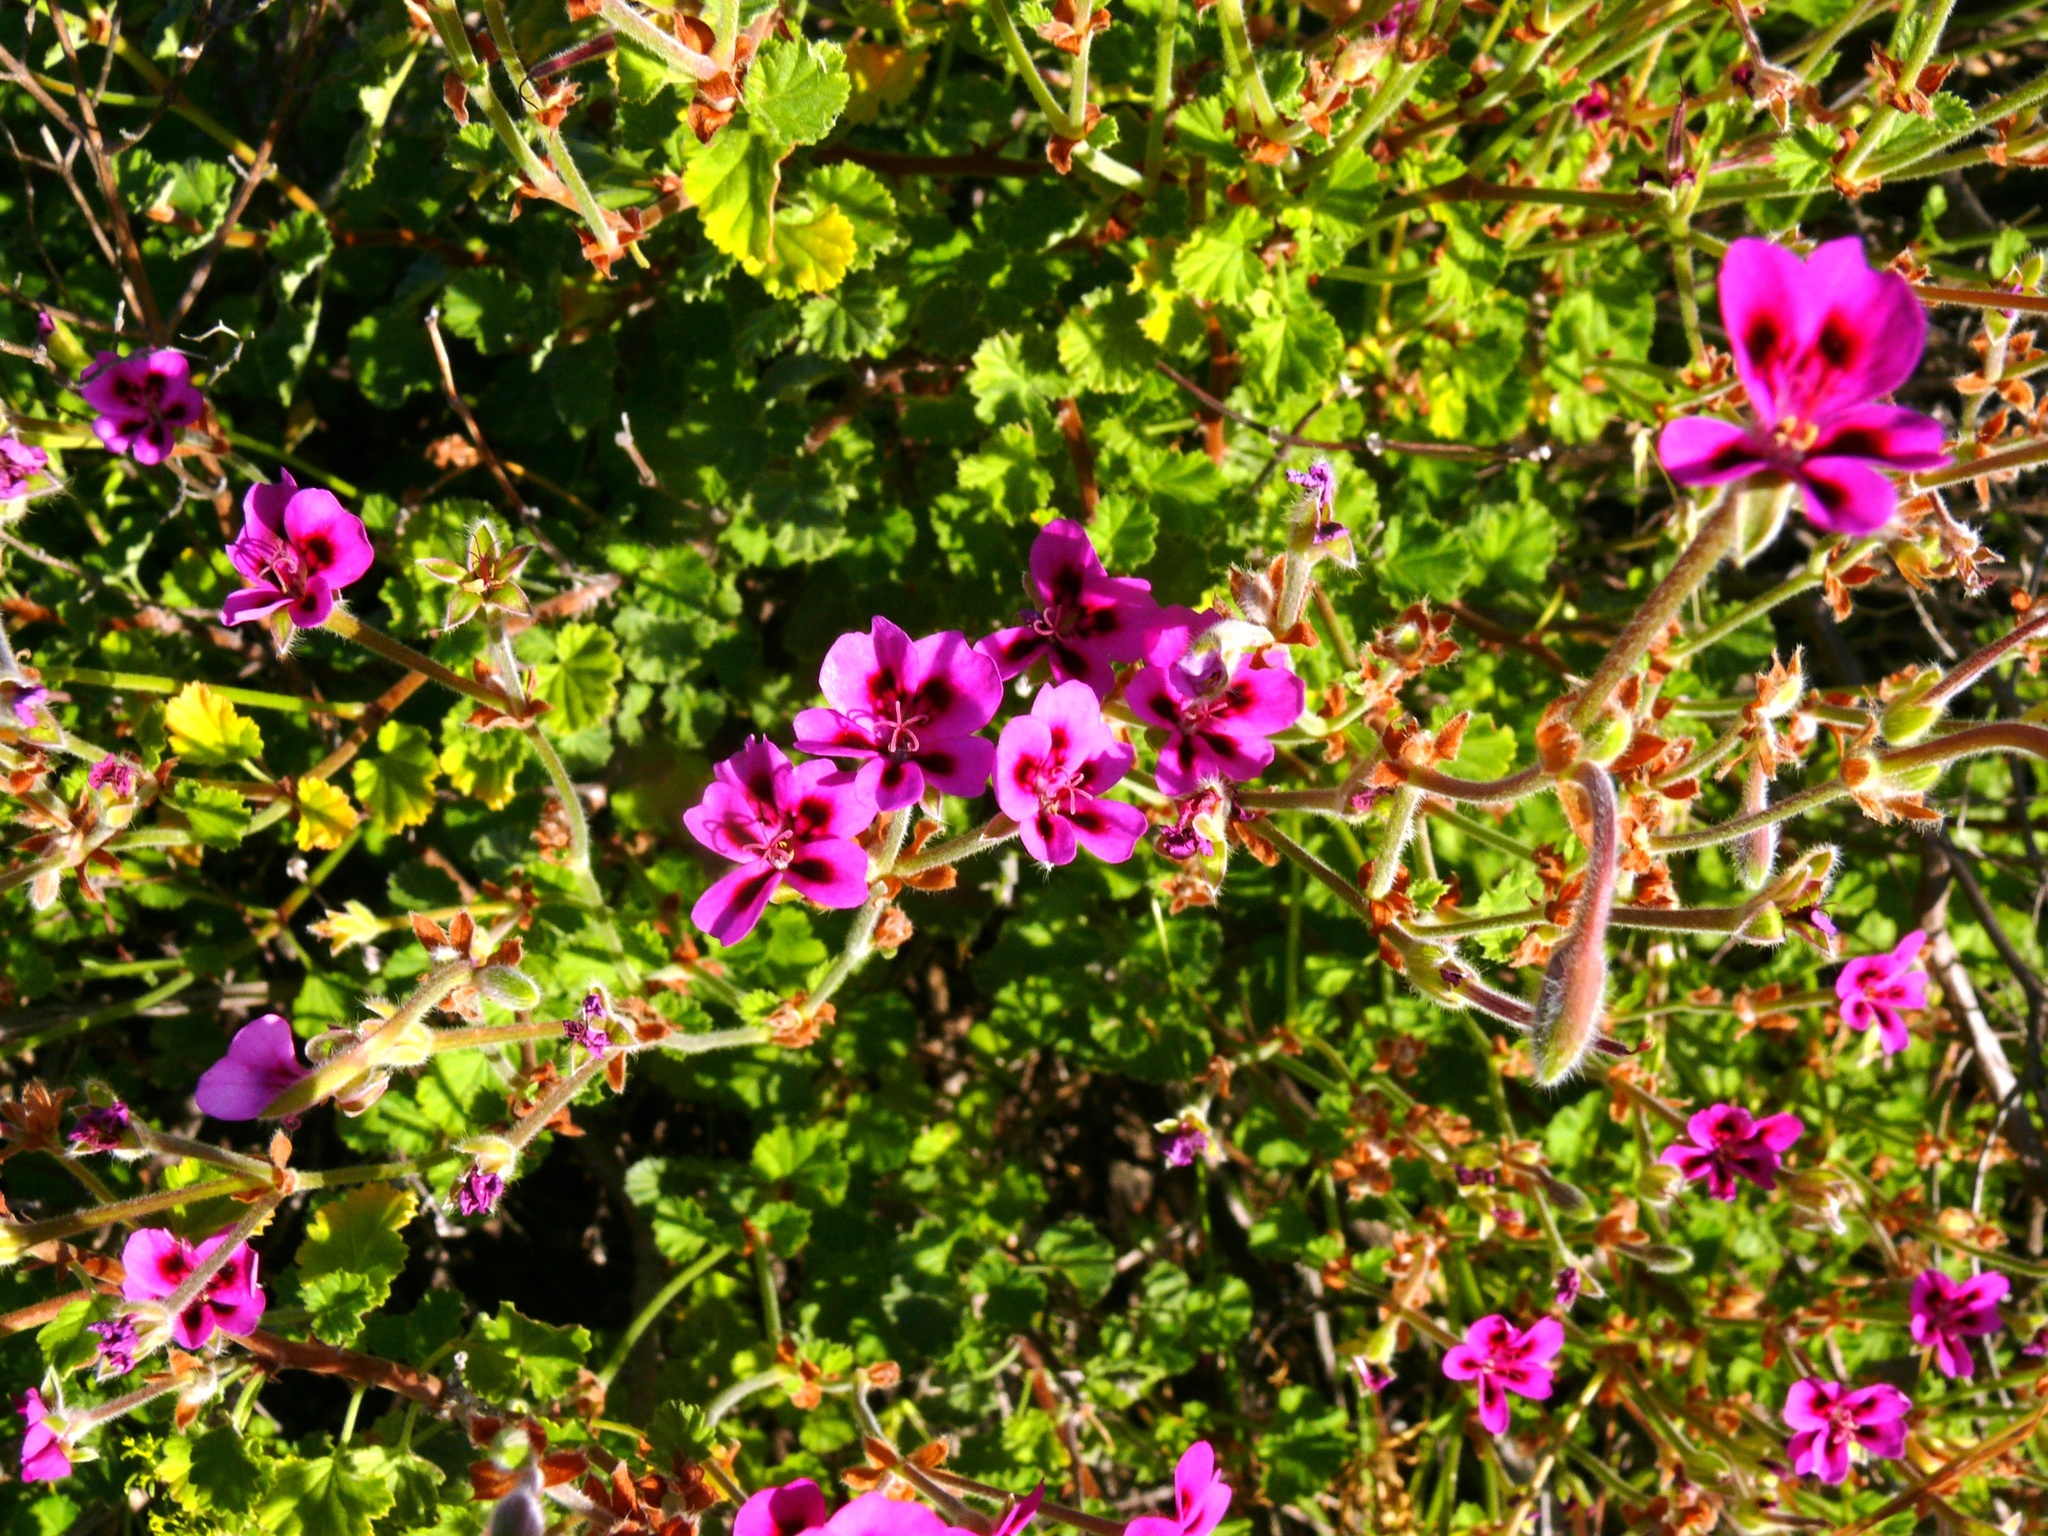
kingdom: Plantae
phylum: Tracheophyta
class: Magnoliopsida
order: Geraniales
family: Geraniaceae
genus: Pelargonium
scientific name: Pelargonium magenteum
